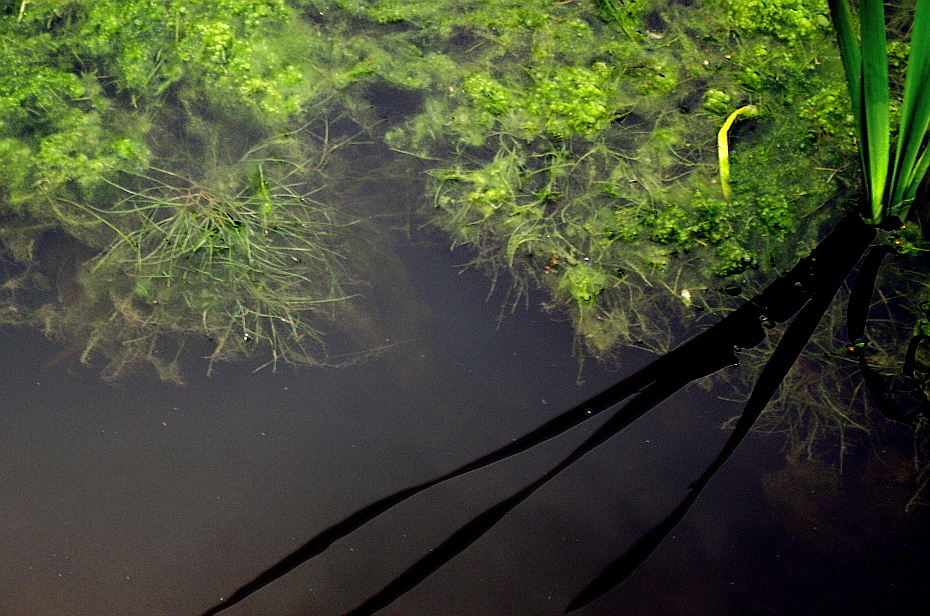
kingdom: Plantae
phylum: Tracheophyta
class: Liliopsida
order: Alismatales
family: Potamogetonaceae
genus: Stuckenia
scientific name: Stuckenia pectinata
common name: Sago pondweed
